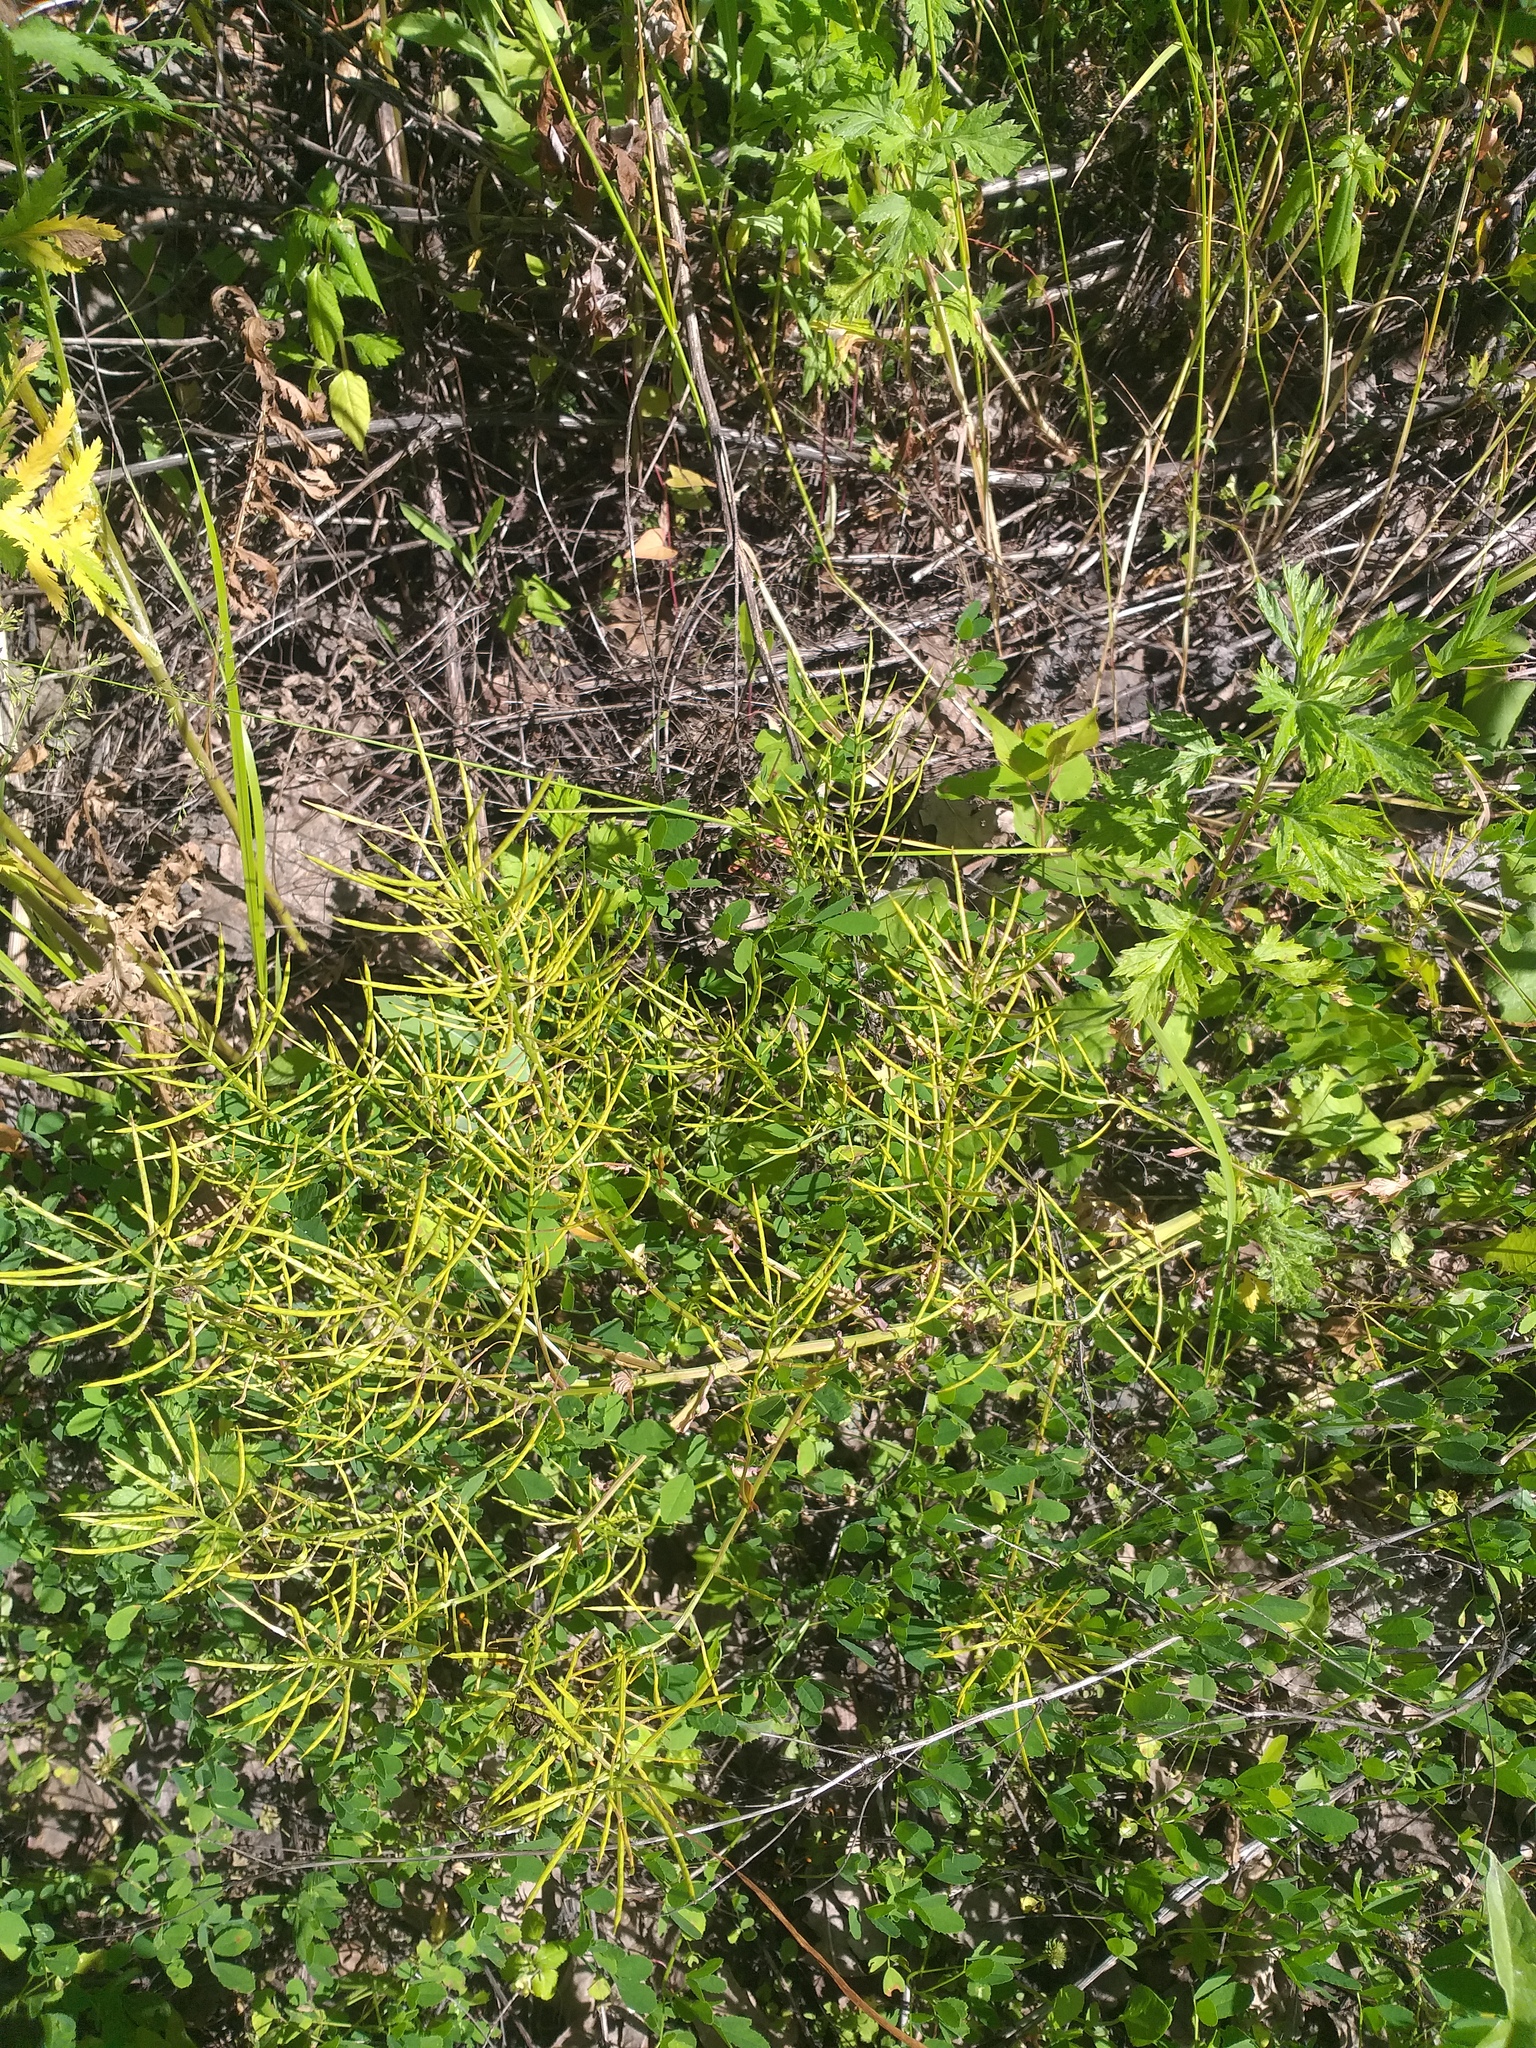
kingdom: Plantae
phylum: Tracheophyta
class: Magnoliopsida
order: Brassicales
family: Brassicaceae
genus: Barbarea
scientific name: Barbarea vulgaris
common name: Cressy-greens
